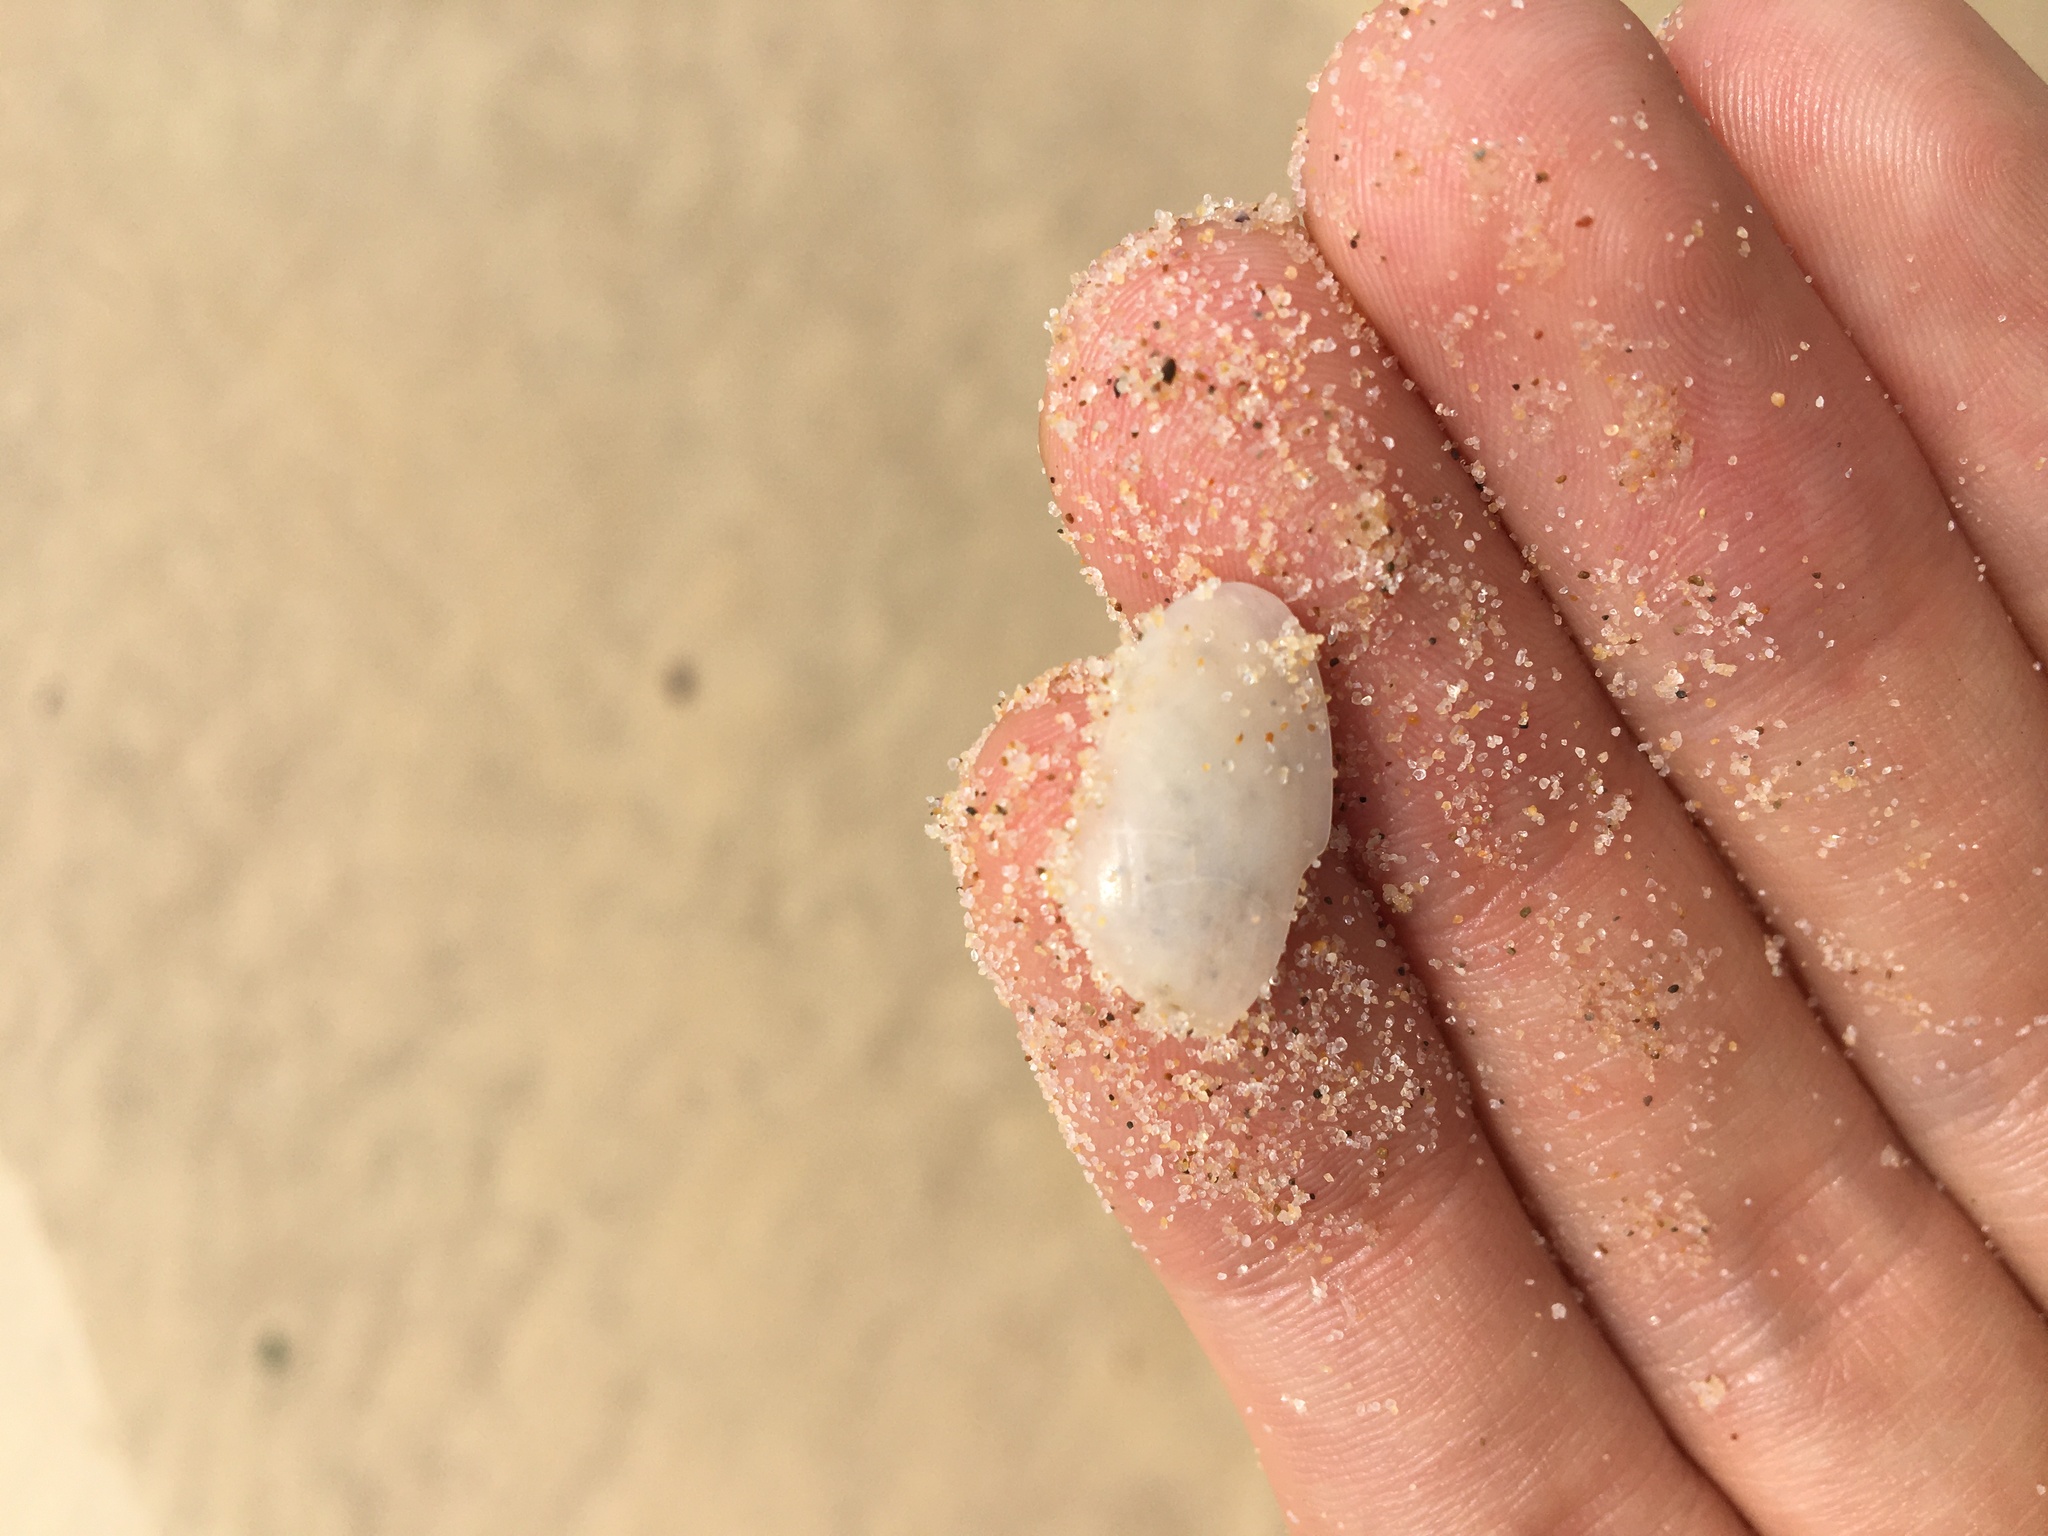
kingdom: Animalia
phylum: Mollusca
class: Bivalvia
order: Venerida
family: Mesodesmatidae
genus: Paphies
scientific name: Paphies angusta
